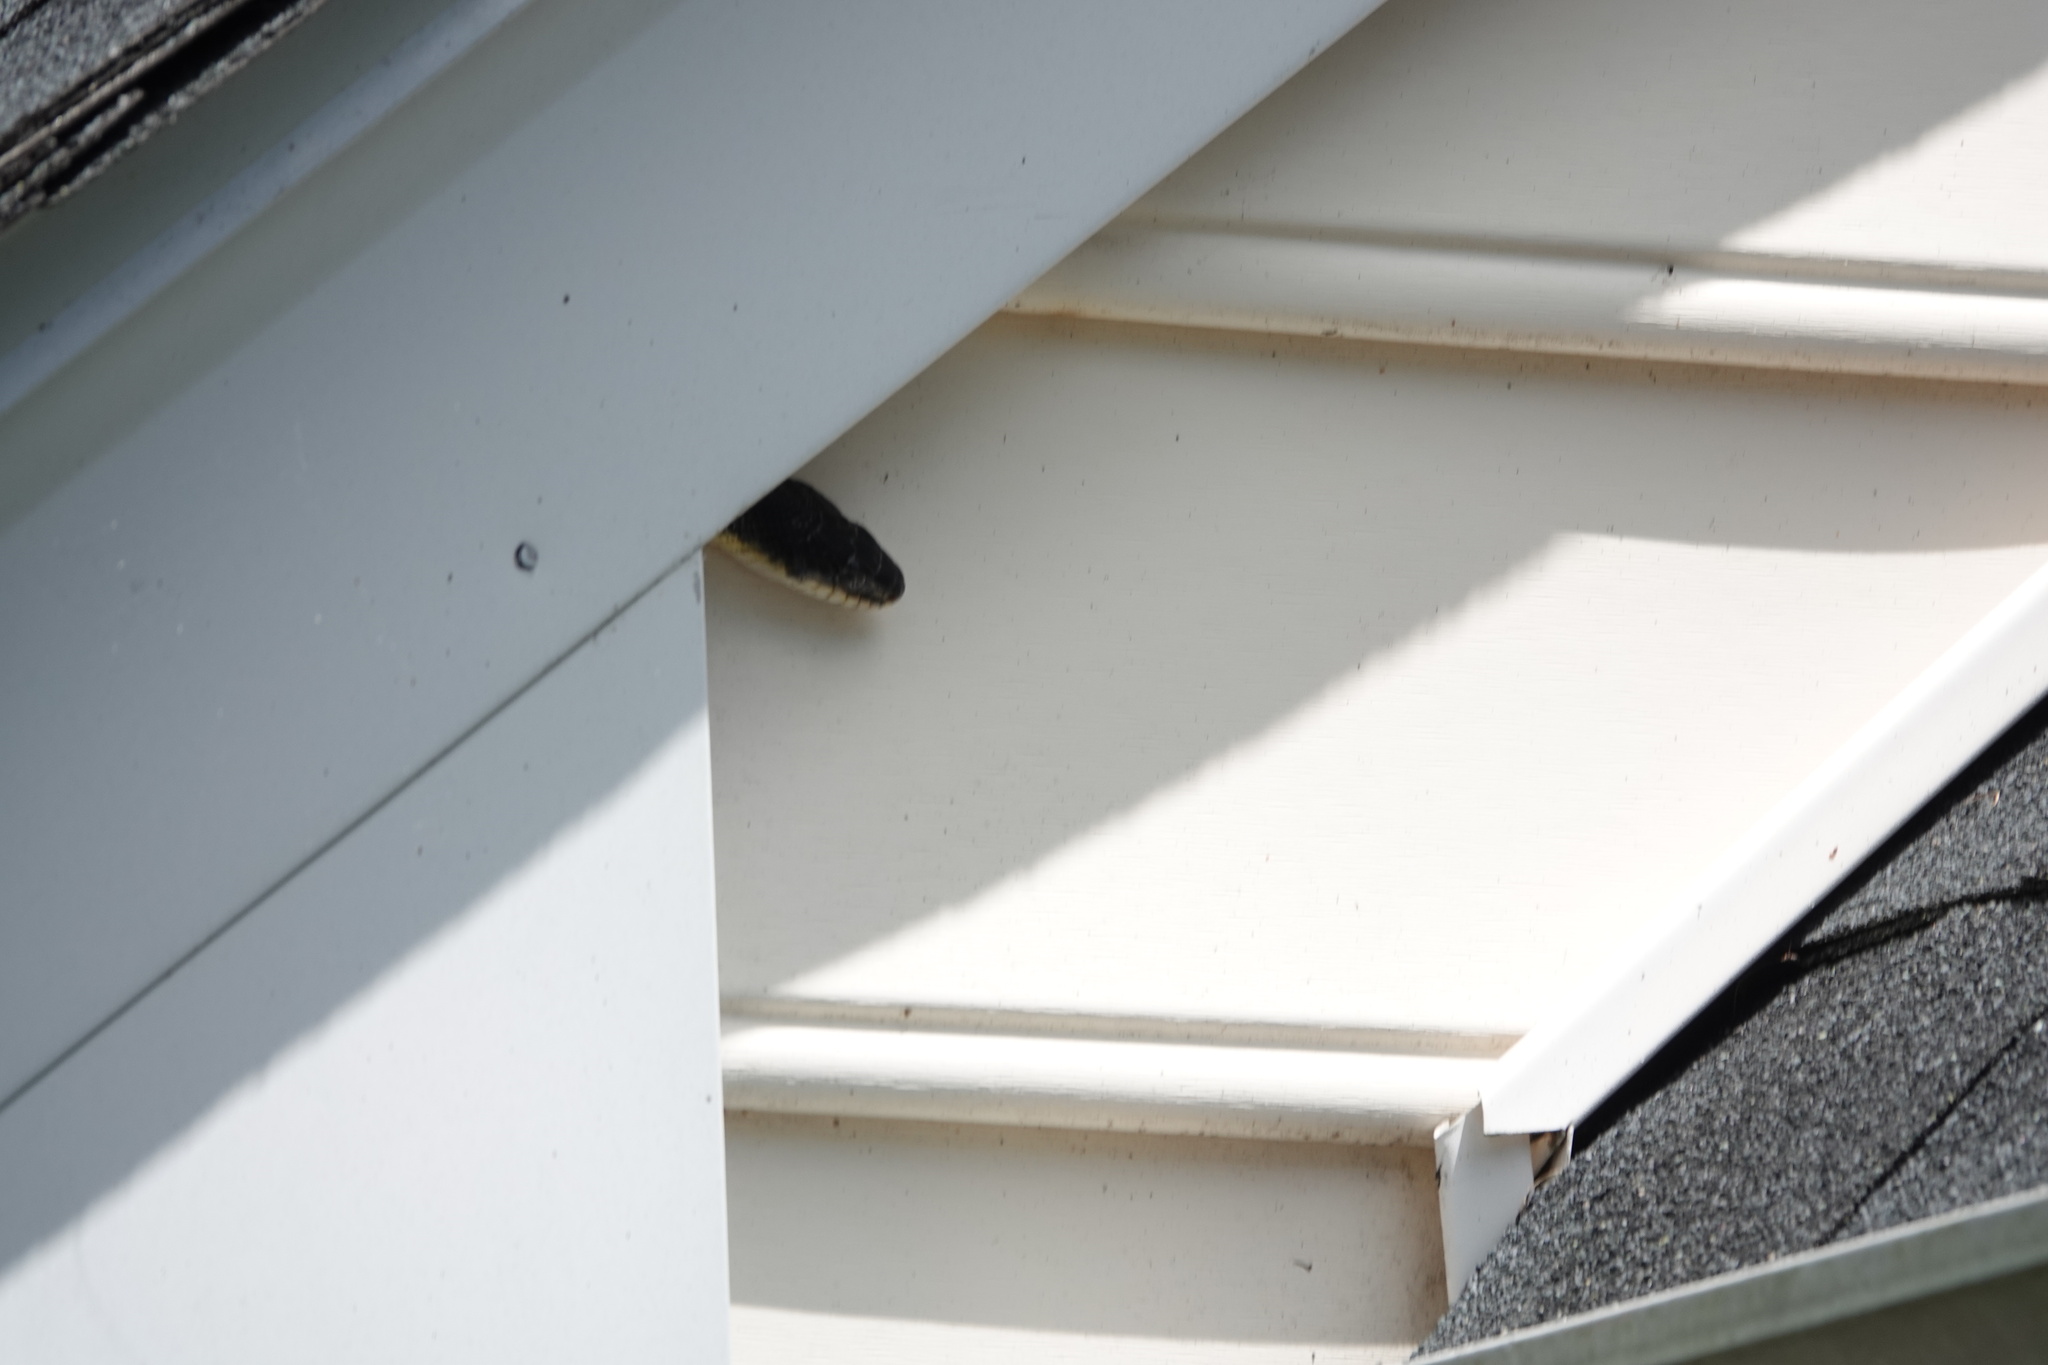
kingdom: Animalia
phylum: Chordata
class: Squamata
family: Colubridae
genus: Pantherophis
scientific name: Pantherophis
